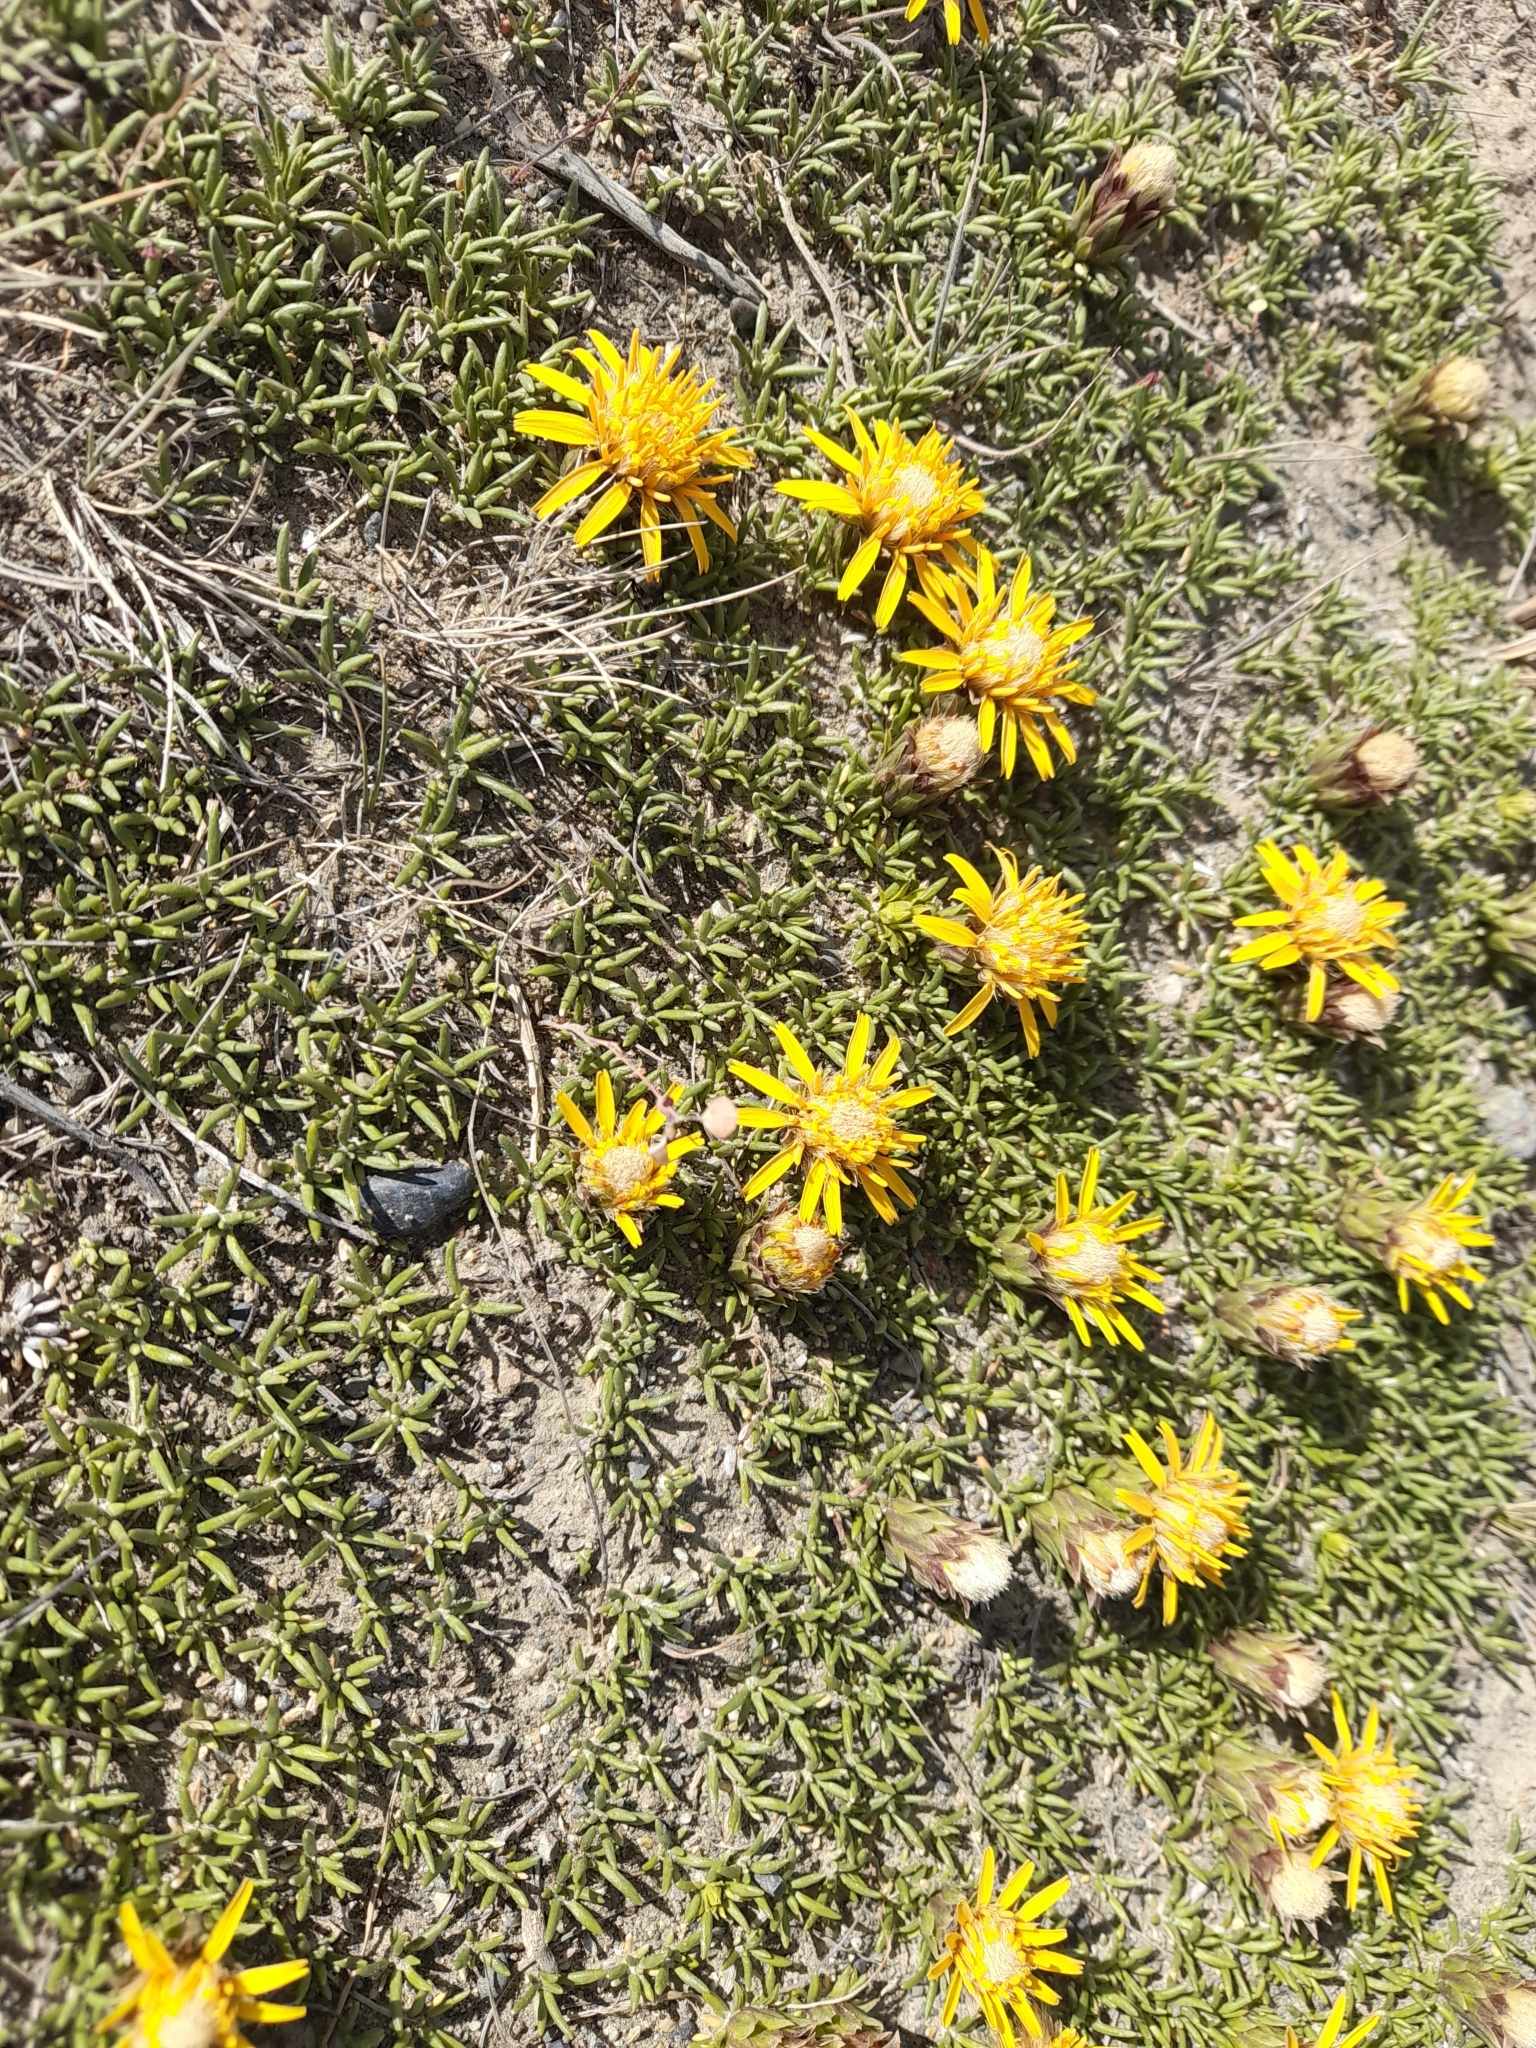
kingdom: Plantae
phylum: Tracheophyta
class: Magnoliopsida
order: Asterales
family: Asteraceae
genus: Brachyclados
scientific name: Brachyclados caespitosus
